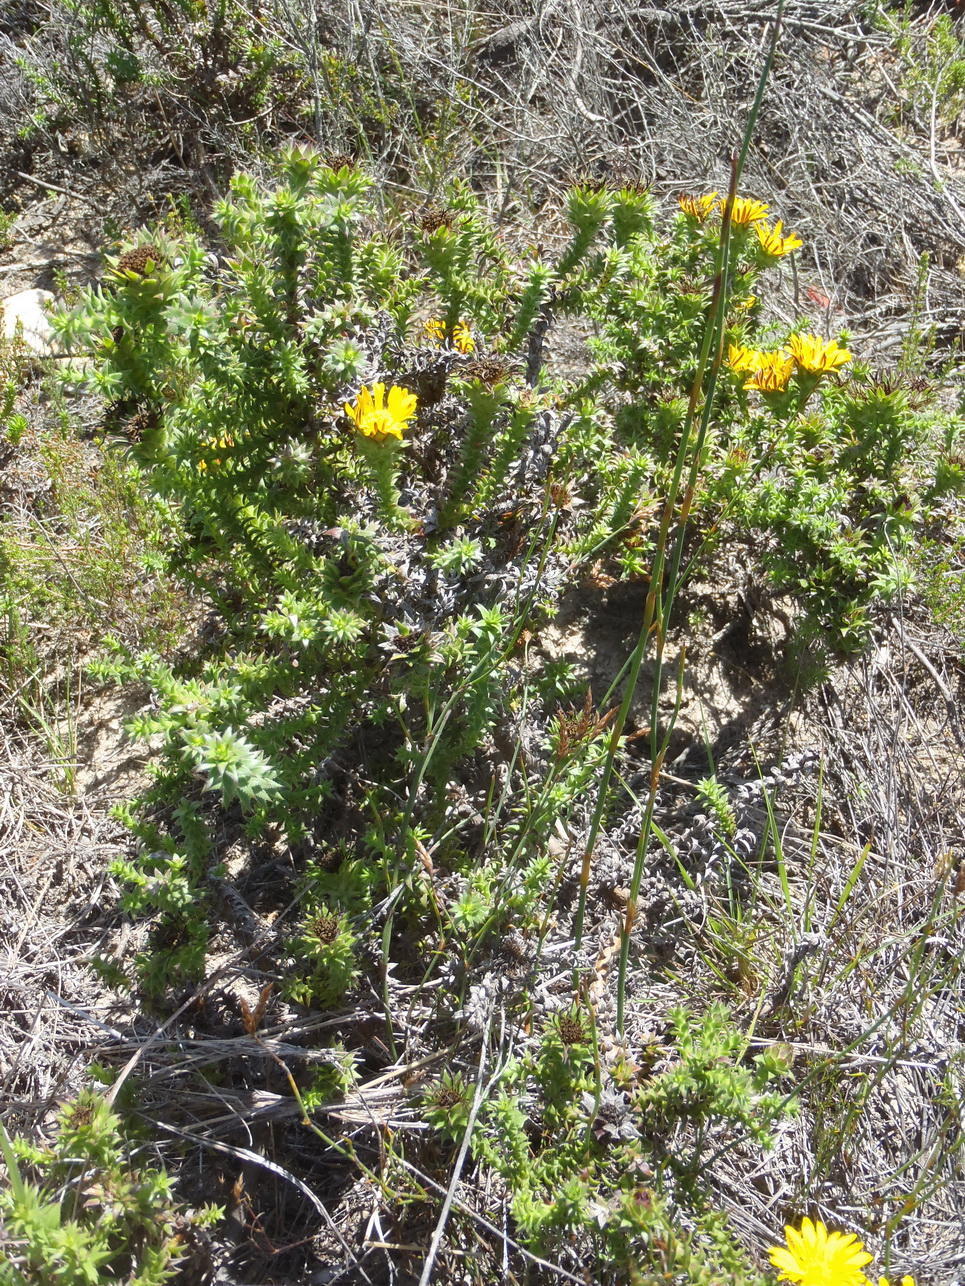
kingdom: Plantae
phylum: Tracheophyta
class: Magnoliopsida
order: Asterales
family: Asteraceae
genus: Oedera
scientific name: Oedera imbricata
